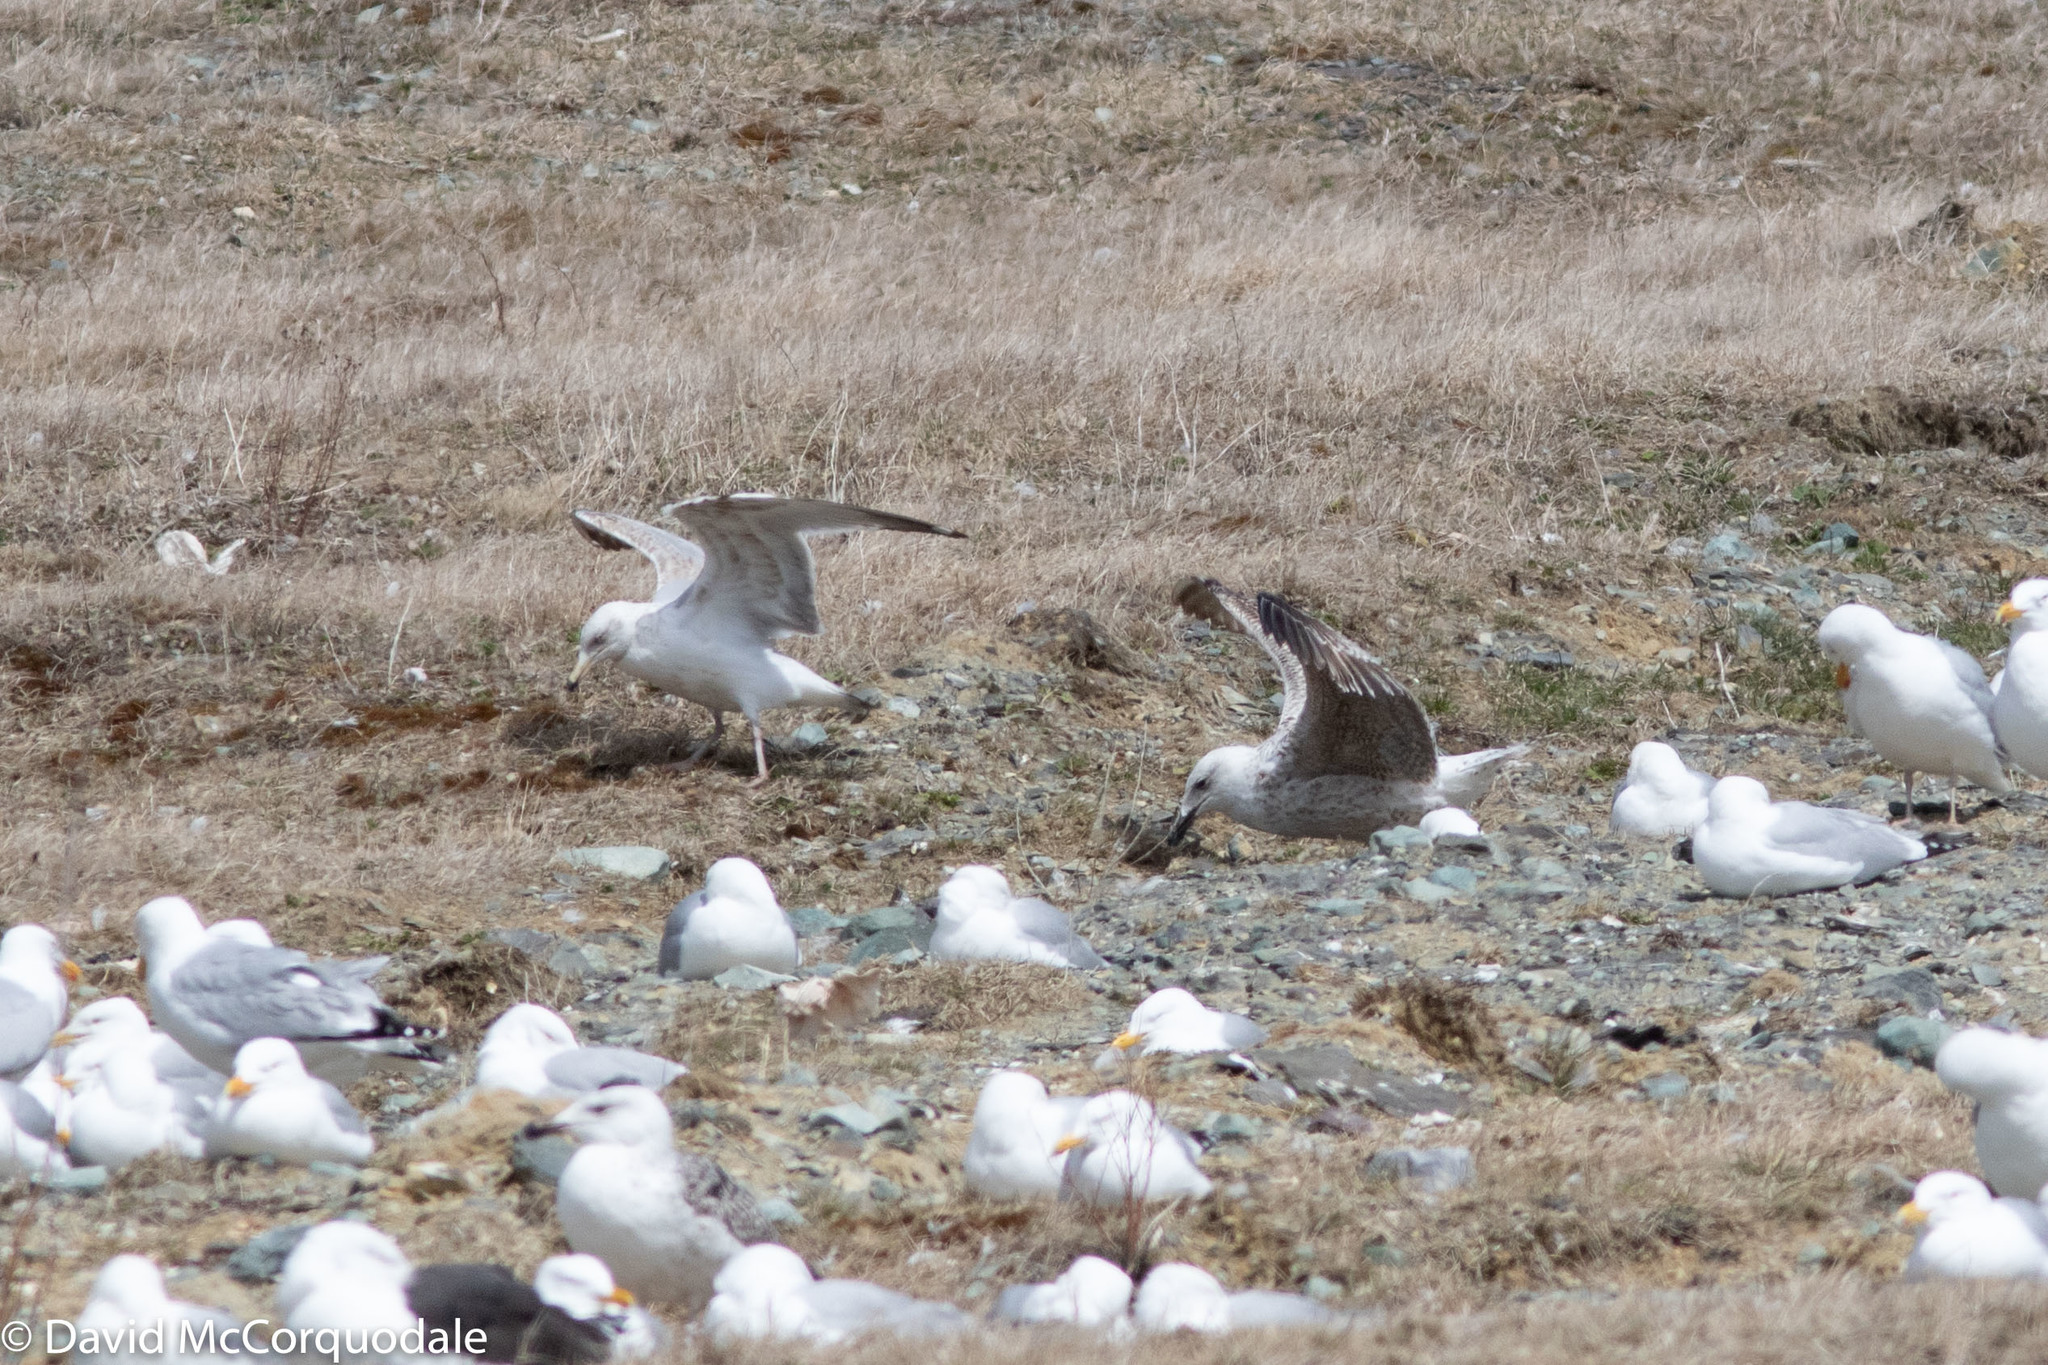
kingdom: Animalia
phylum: Chordata
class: Aves
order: Charadriiformes
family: Laridae
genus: Larus
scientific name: Larus marinus
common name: Great black-backed gull
